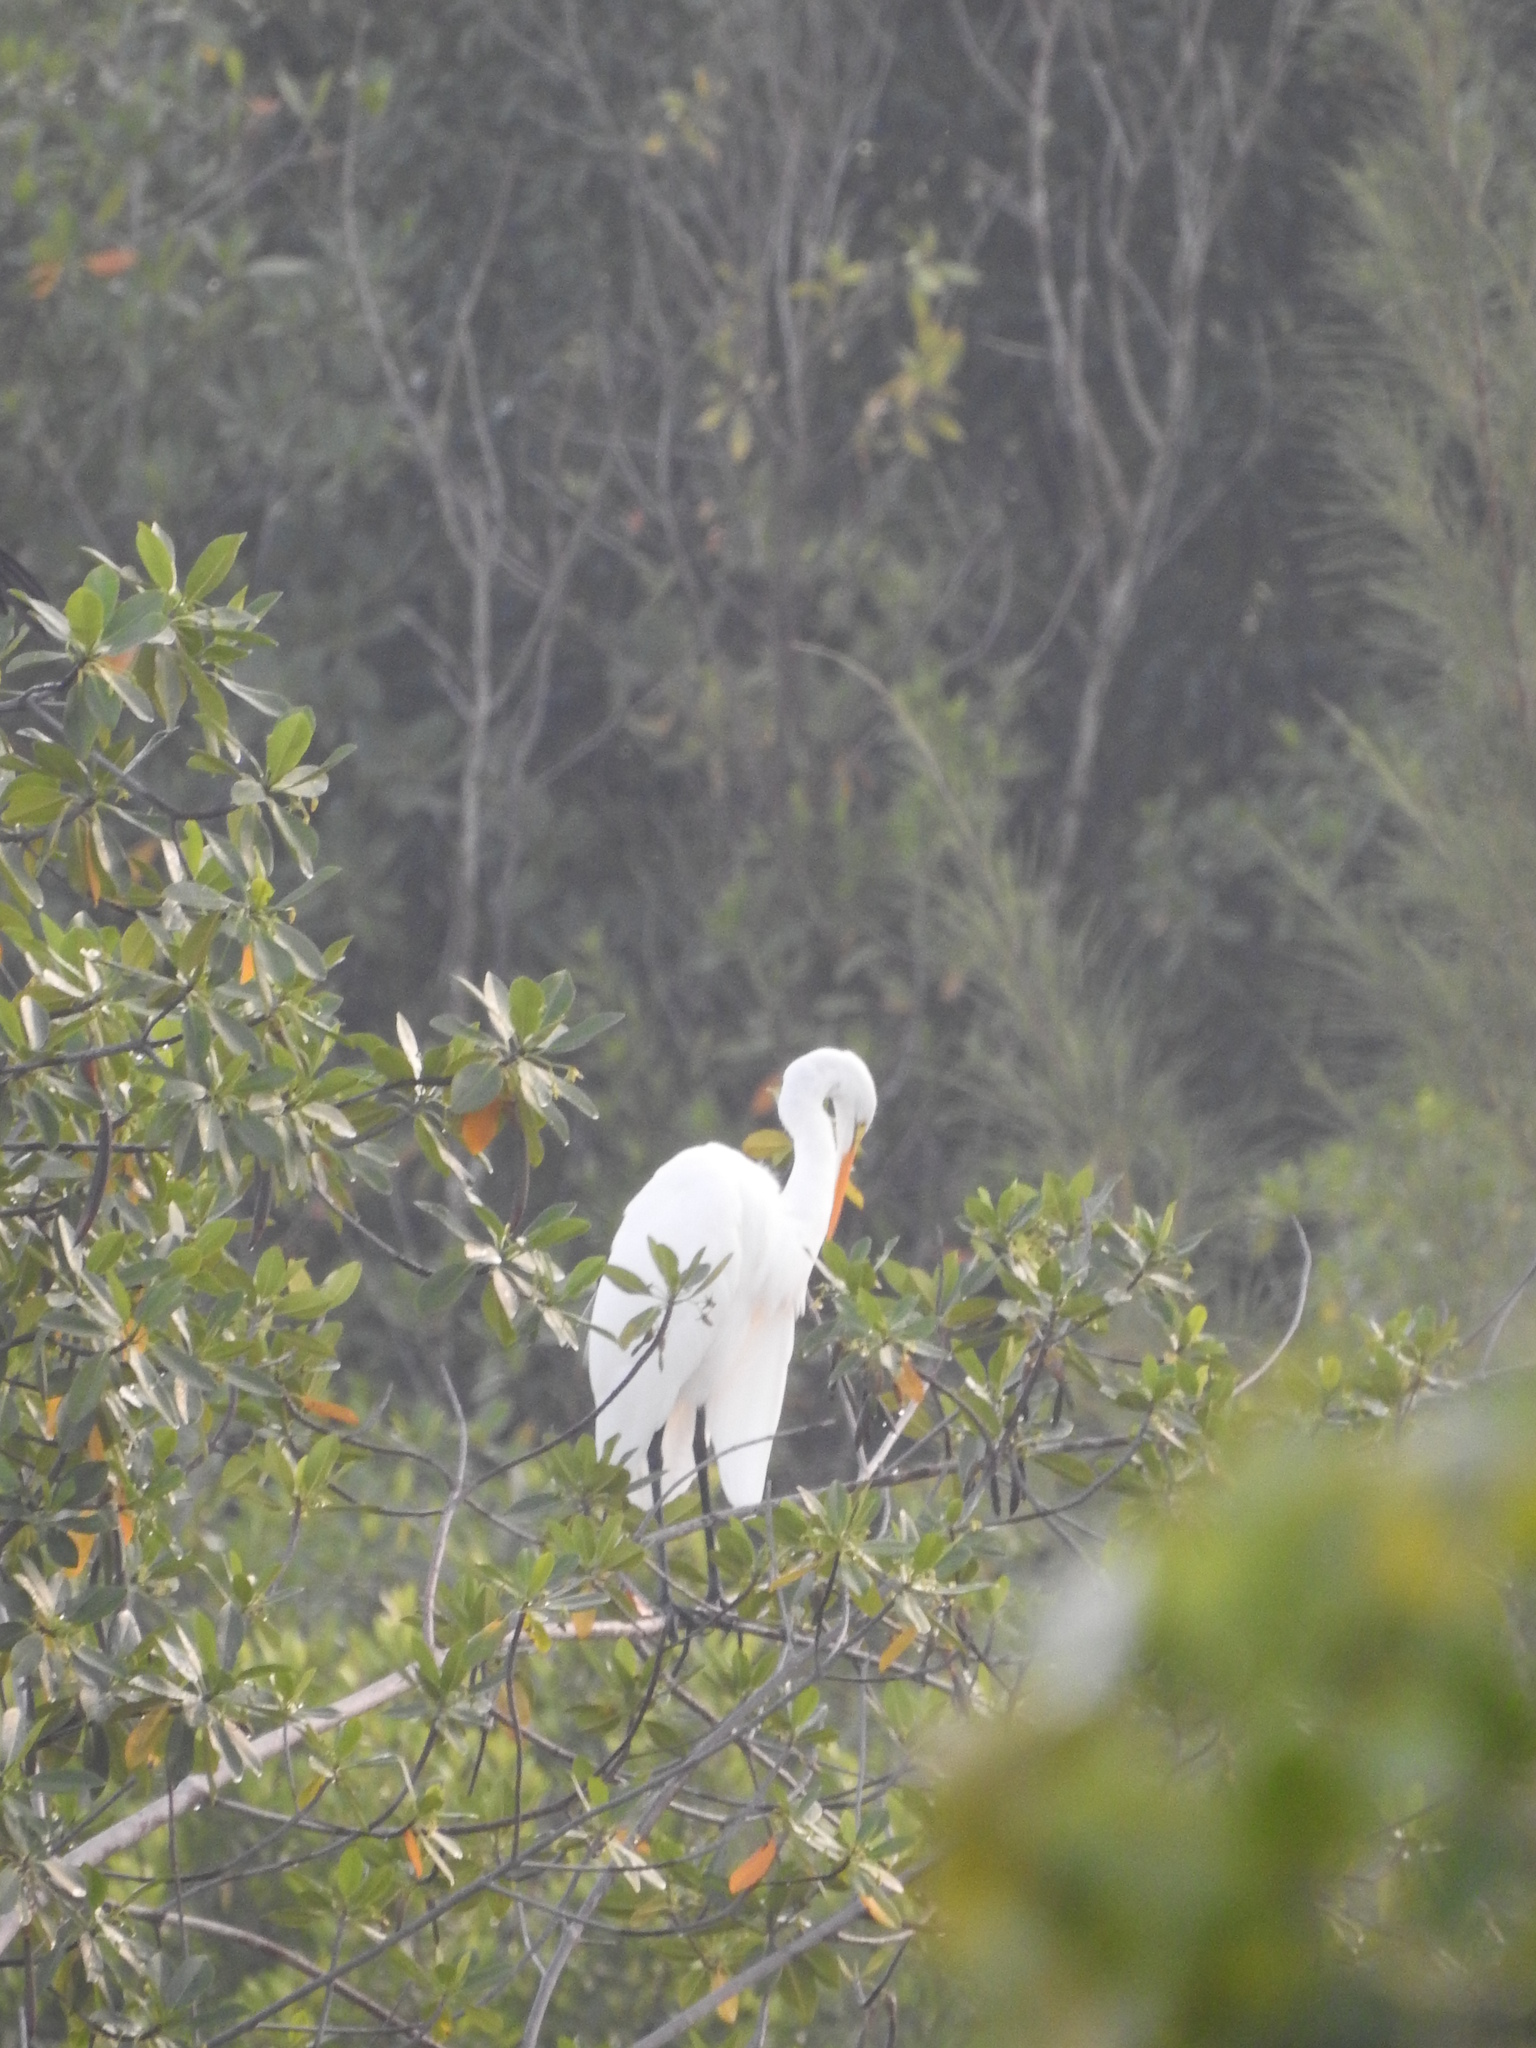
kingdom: Animalia
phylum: Chordata
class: Aves
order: Pelecaniformes
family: Ardeidae
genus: Ardea
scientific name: Ardea alba
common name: Great egret
